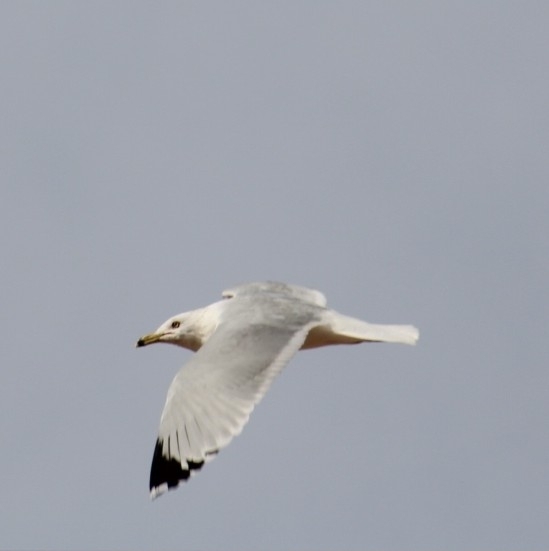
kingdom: Animalia
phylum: Chordata
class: Aves
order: Charadriiformes
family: Laridae
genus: Larus
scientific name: Larus delawarensis
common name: Ring-billed gull
